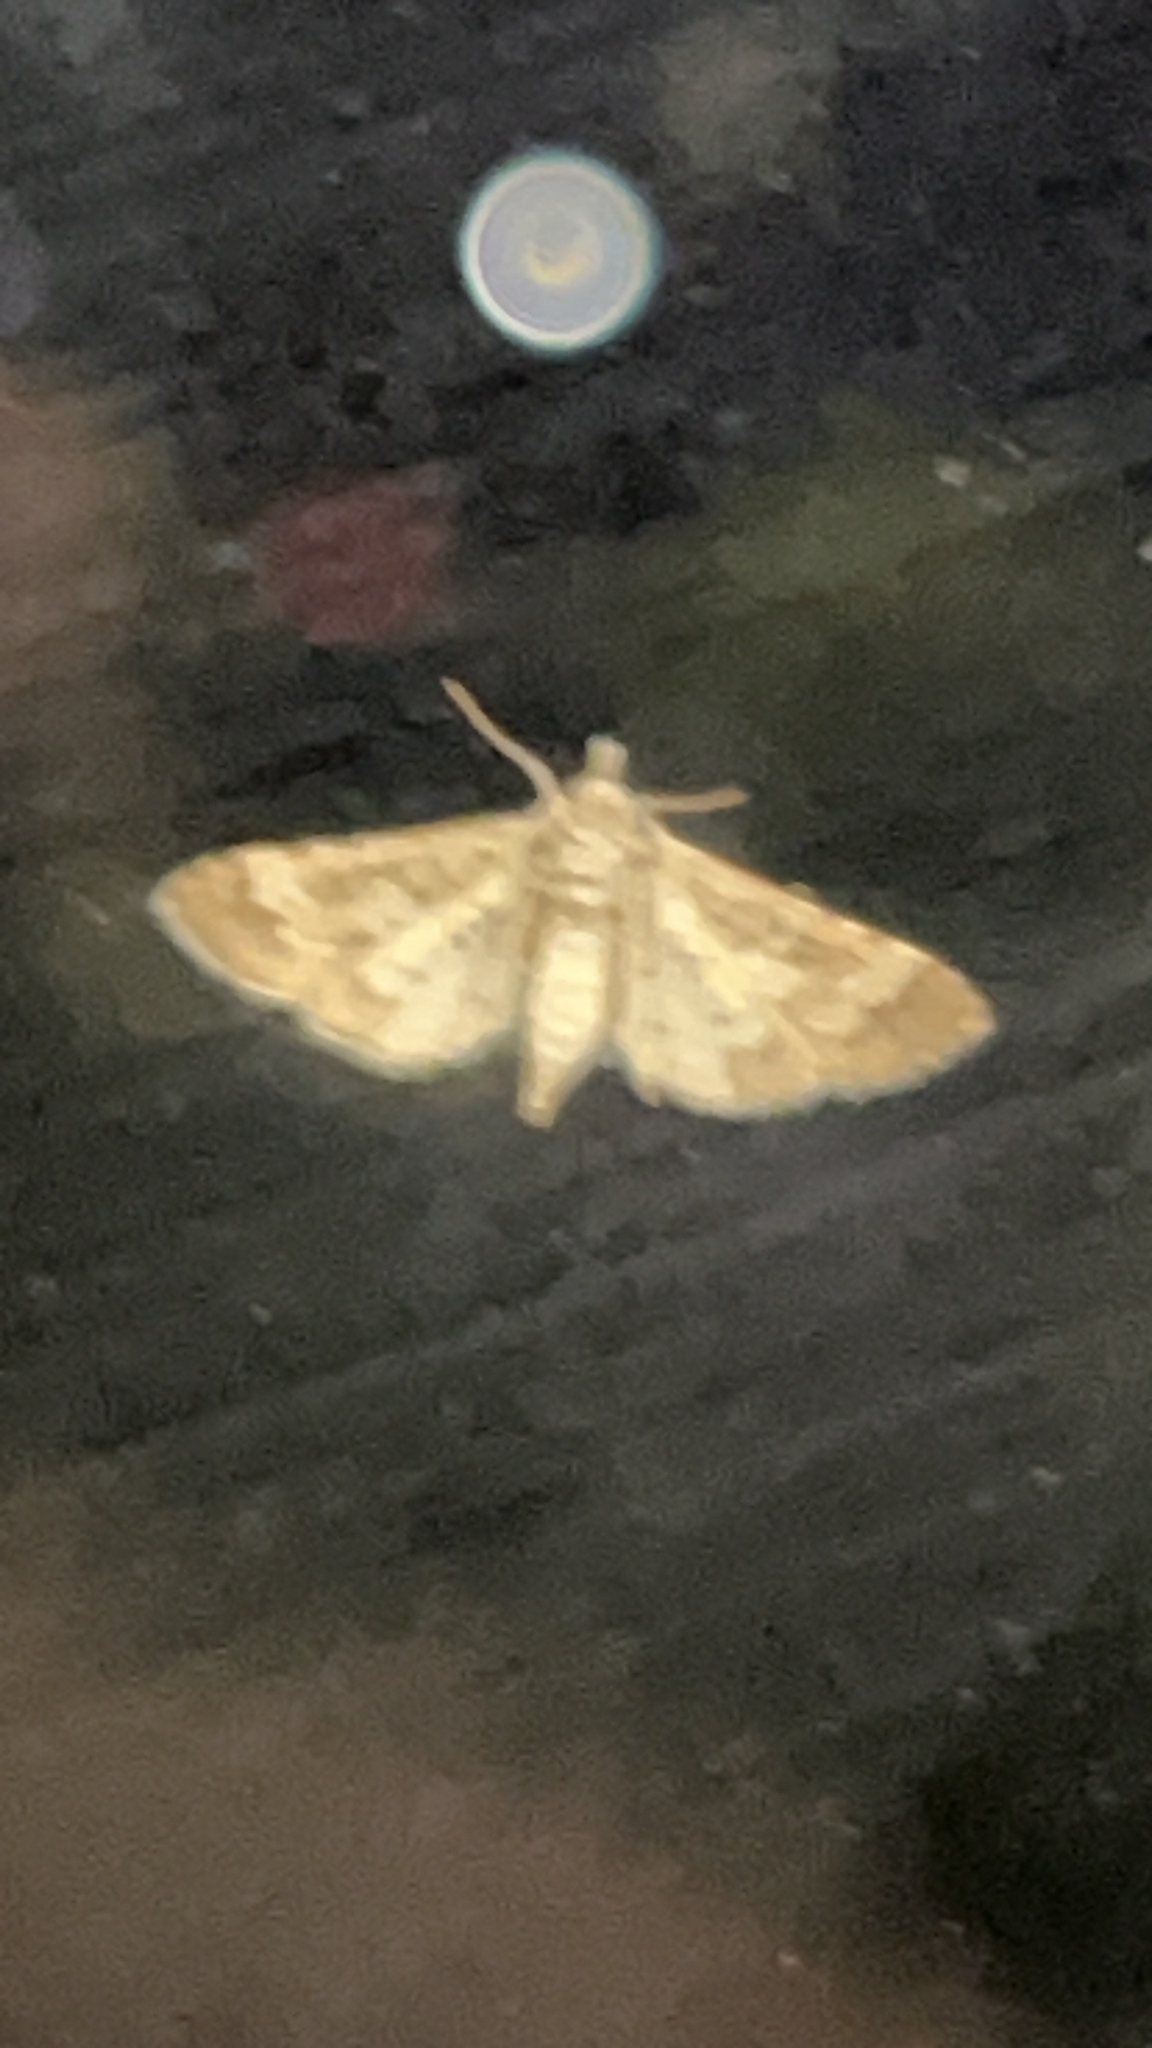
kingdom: Animalia
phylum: Arthropoda
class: Insecta
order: Lepidoptera
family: Crambidae
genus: Samea
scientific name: Samea multiplicalis
